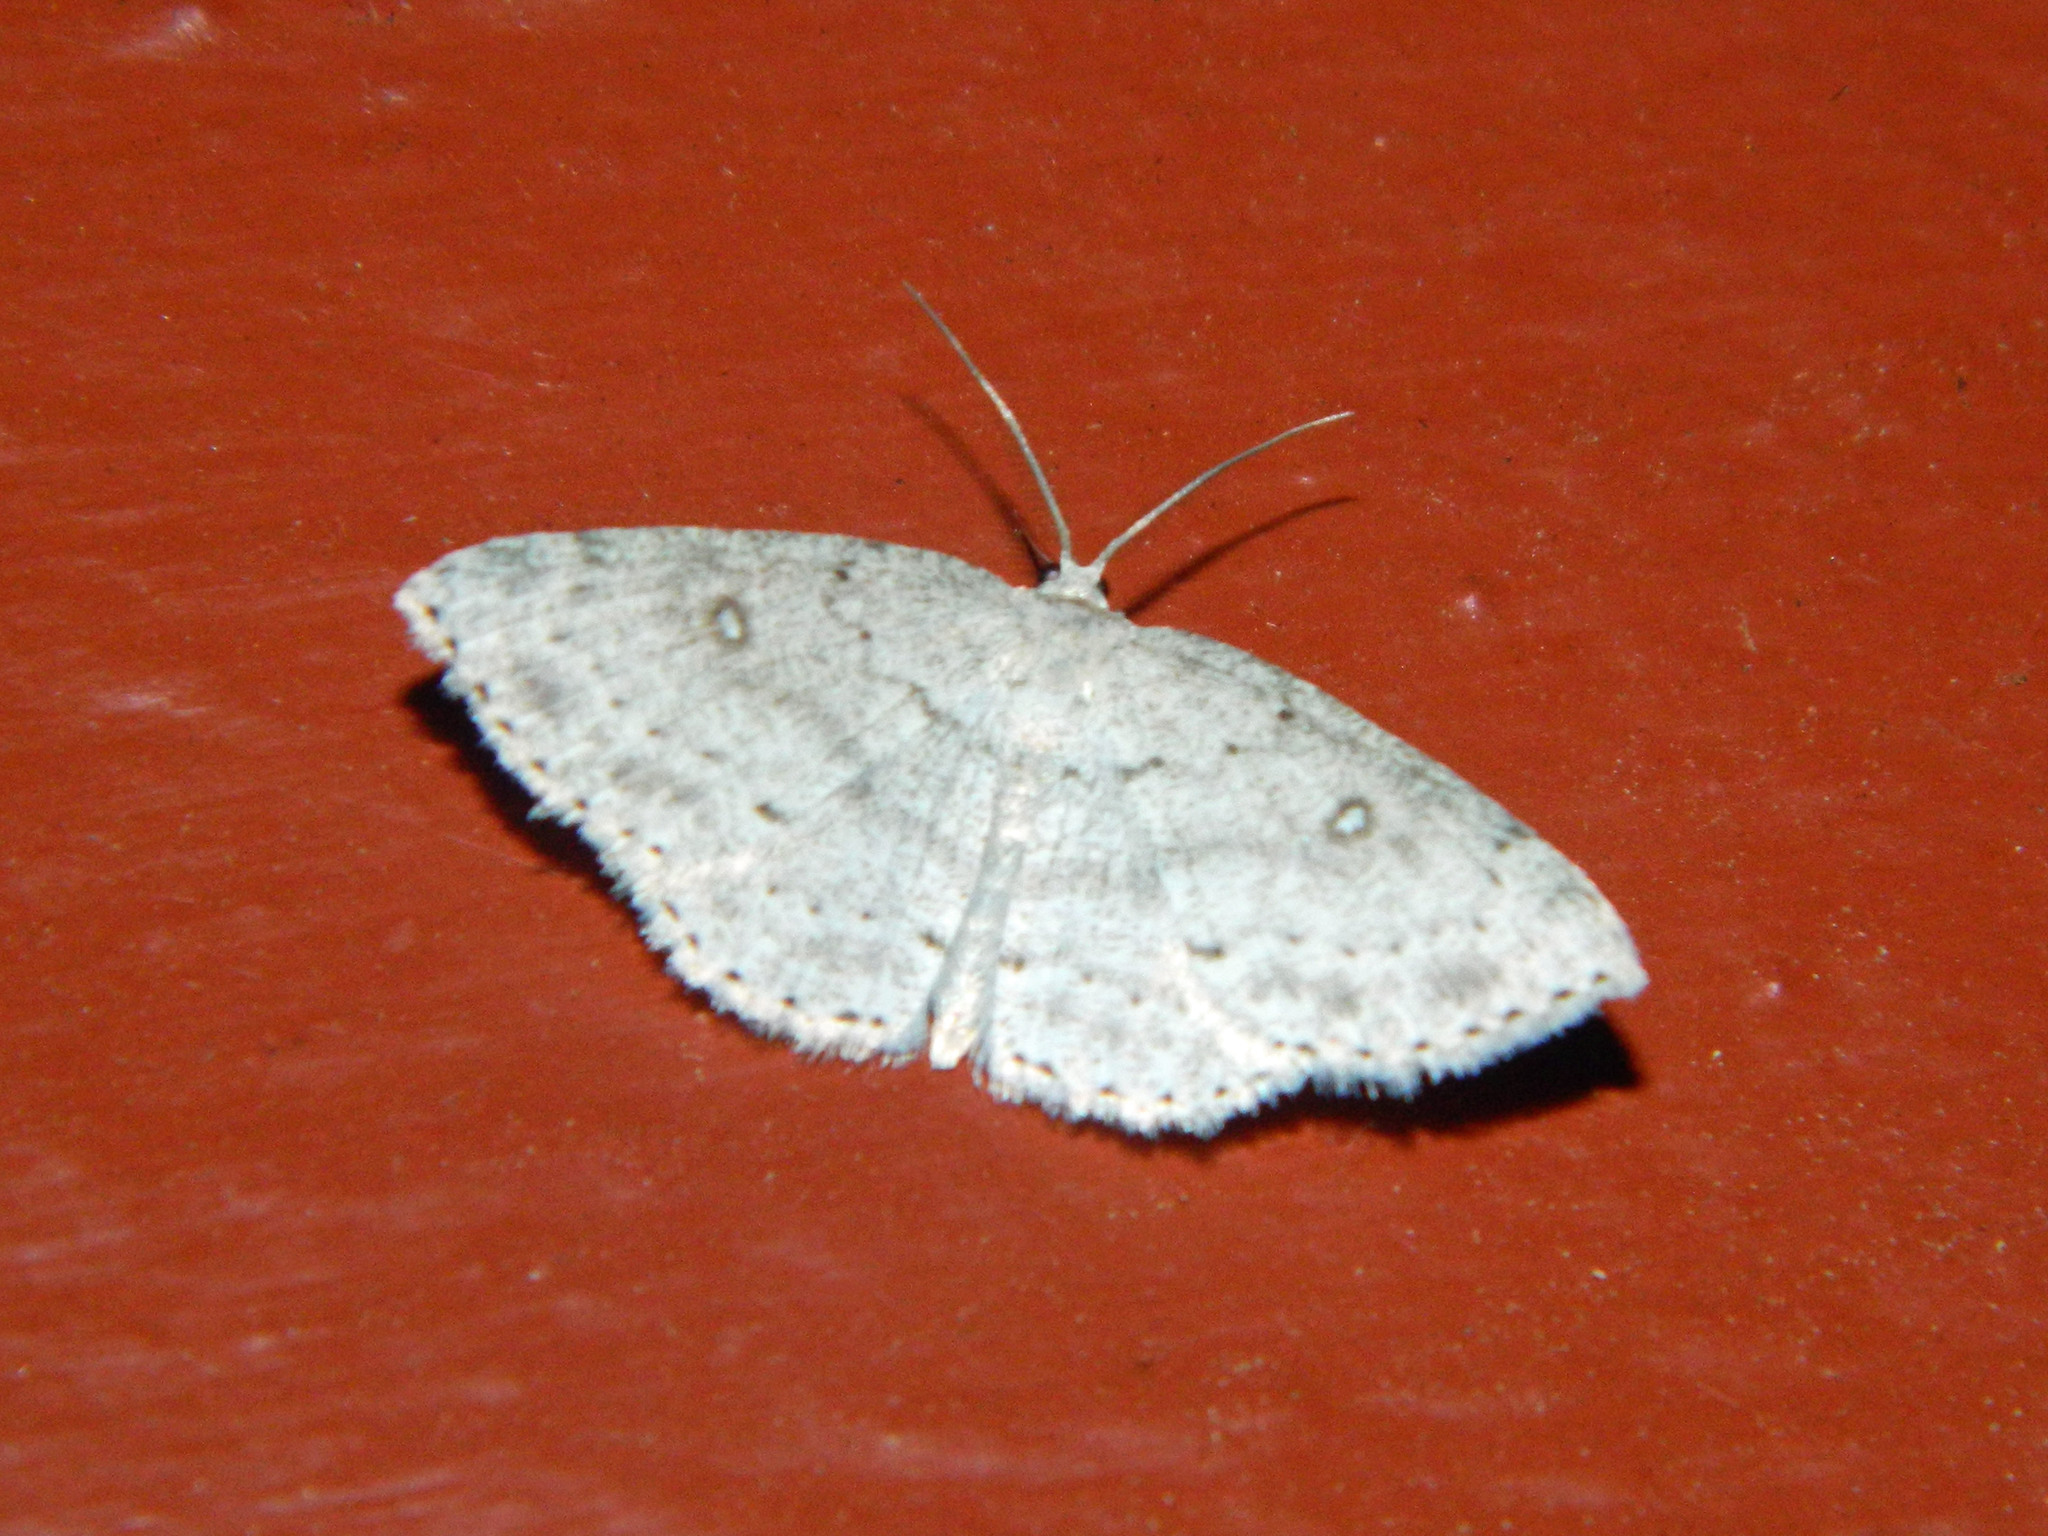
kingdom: Animalia
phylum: Arthropoda
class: Insecta
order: Lepidoptera
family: Geometridae
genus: Cyclophora
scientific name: Cyclophora pendulinaria
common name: Sweet fern geometer
